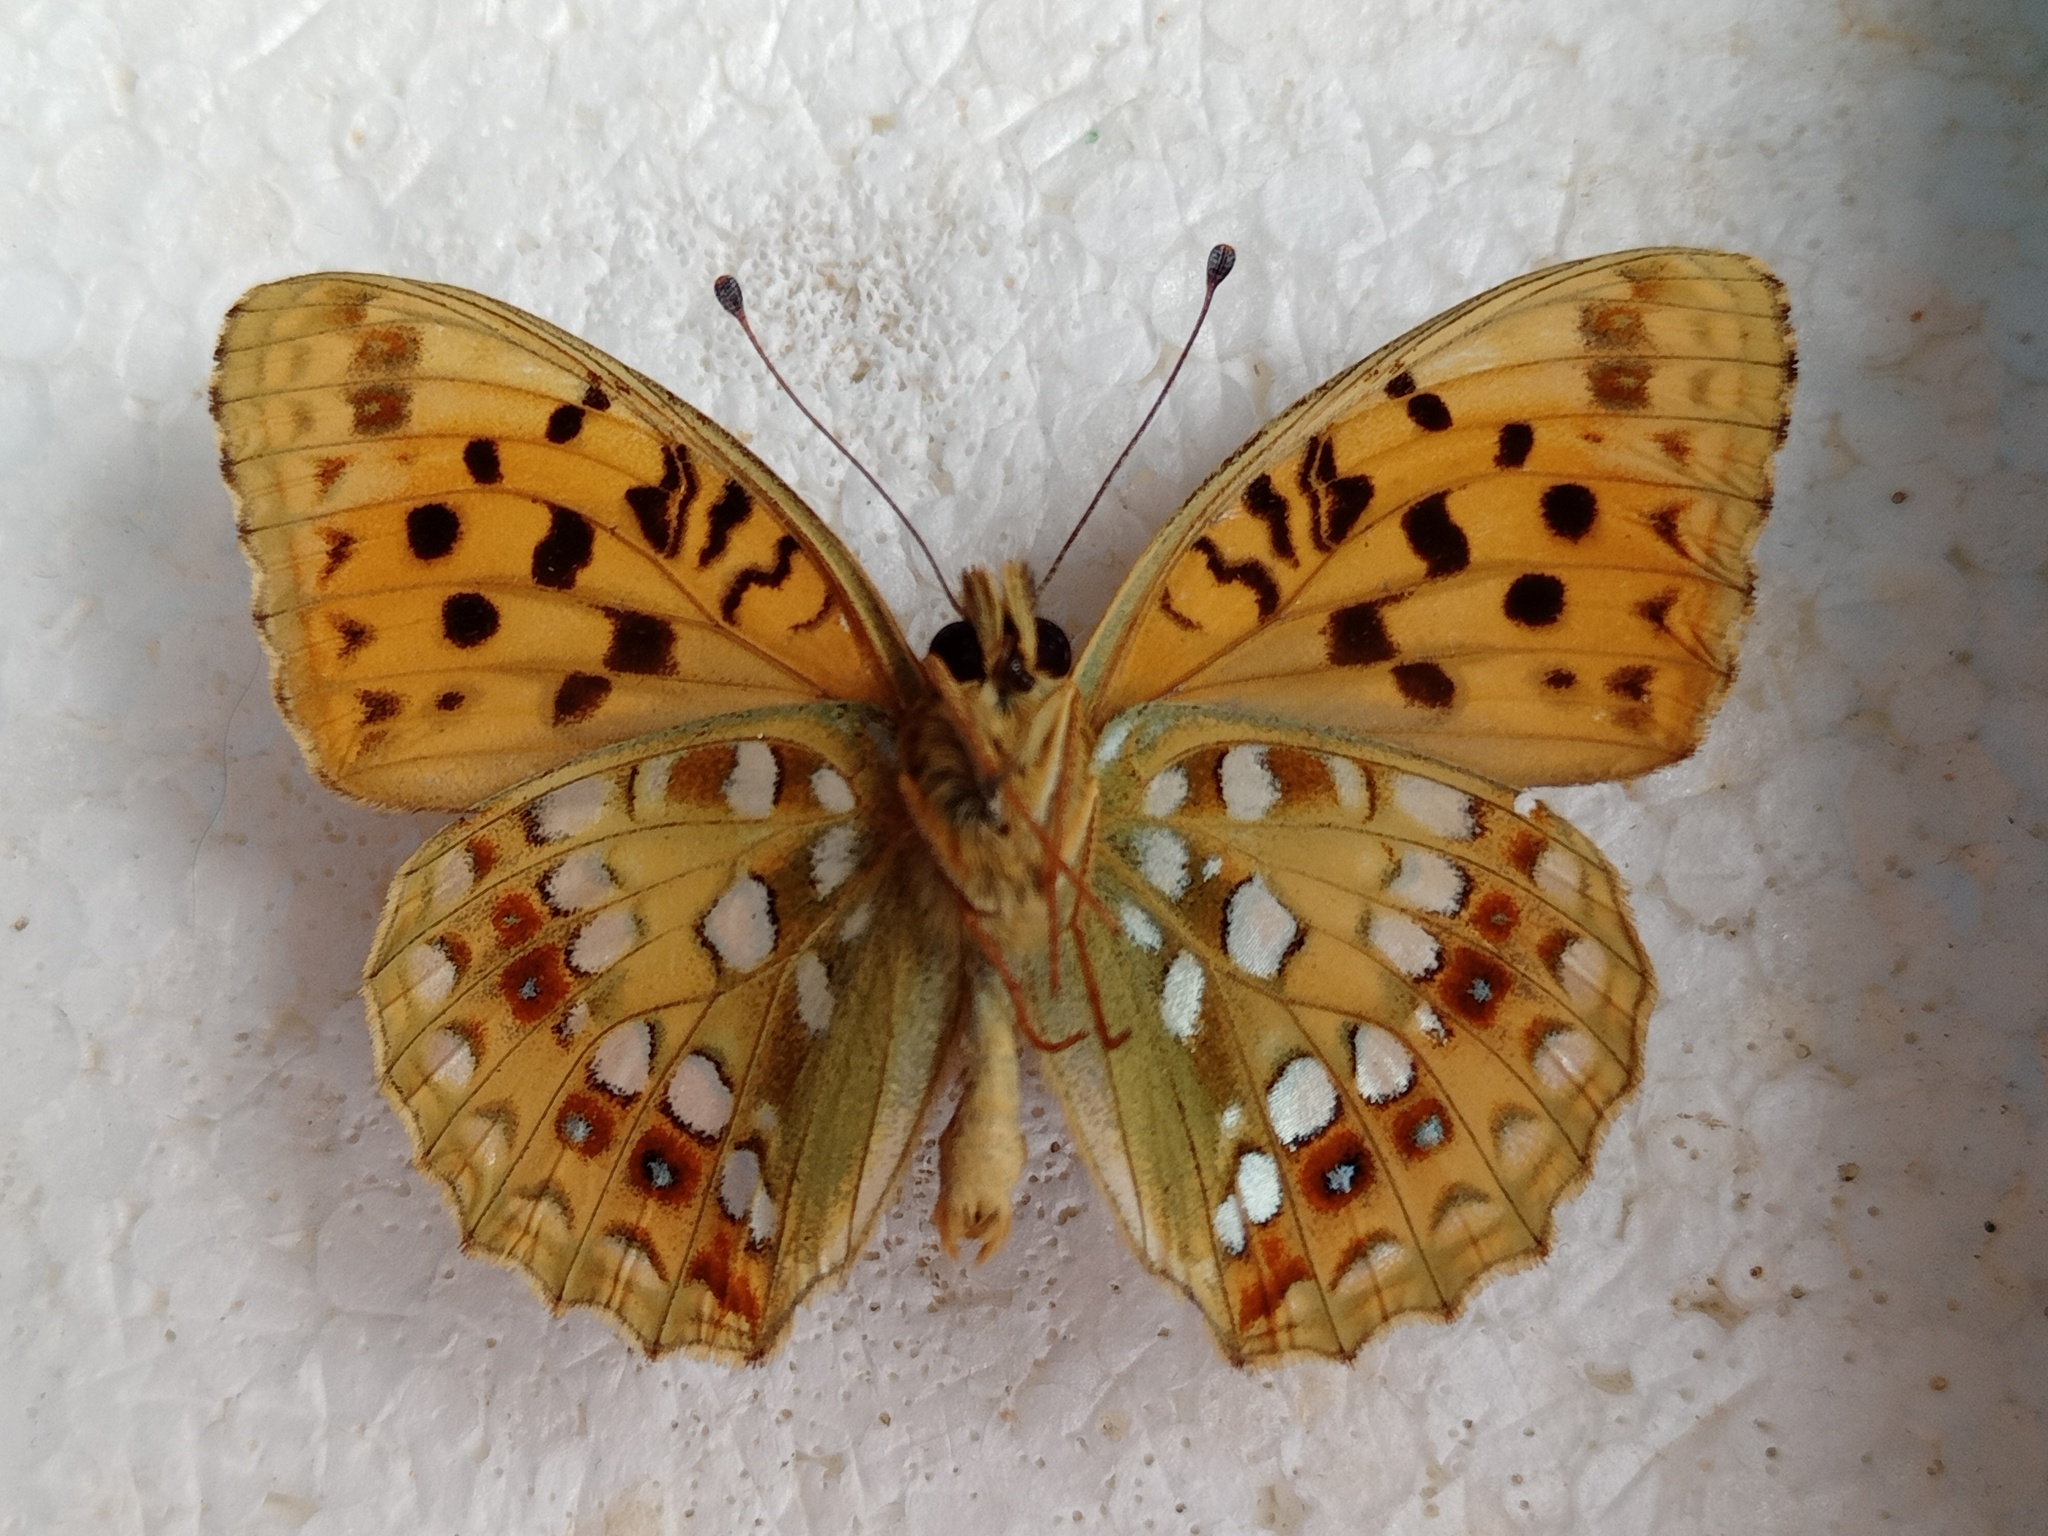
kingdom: Animalia
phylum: Arthropoda
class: Insecta
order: Lepidoptera
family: Nymphalidae
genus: Fabriciana
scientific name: Fabriciana adippe
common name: High brown fritillary
